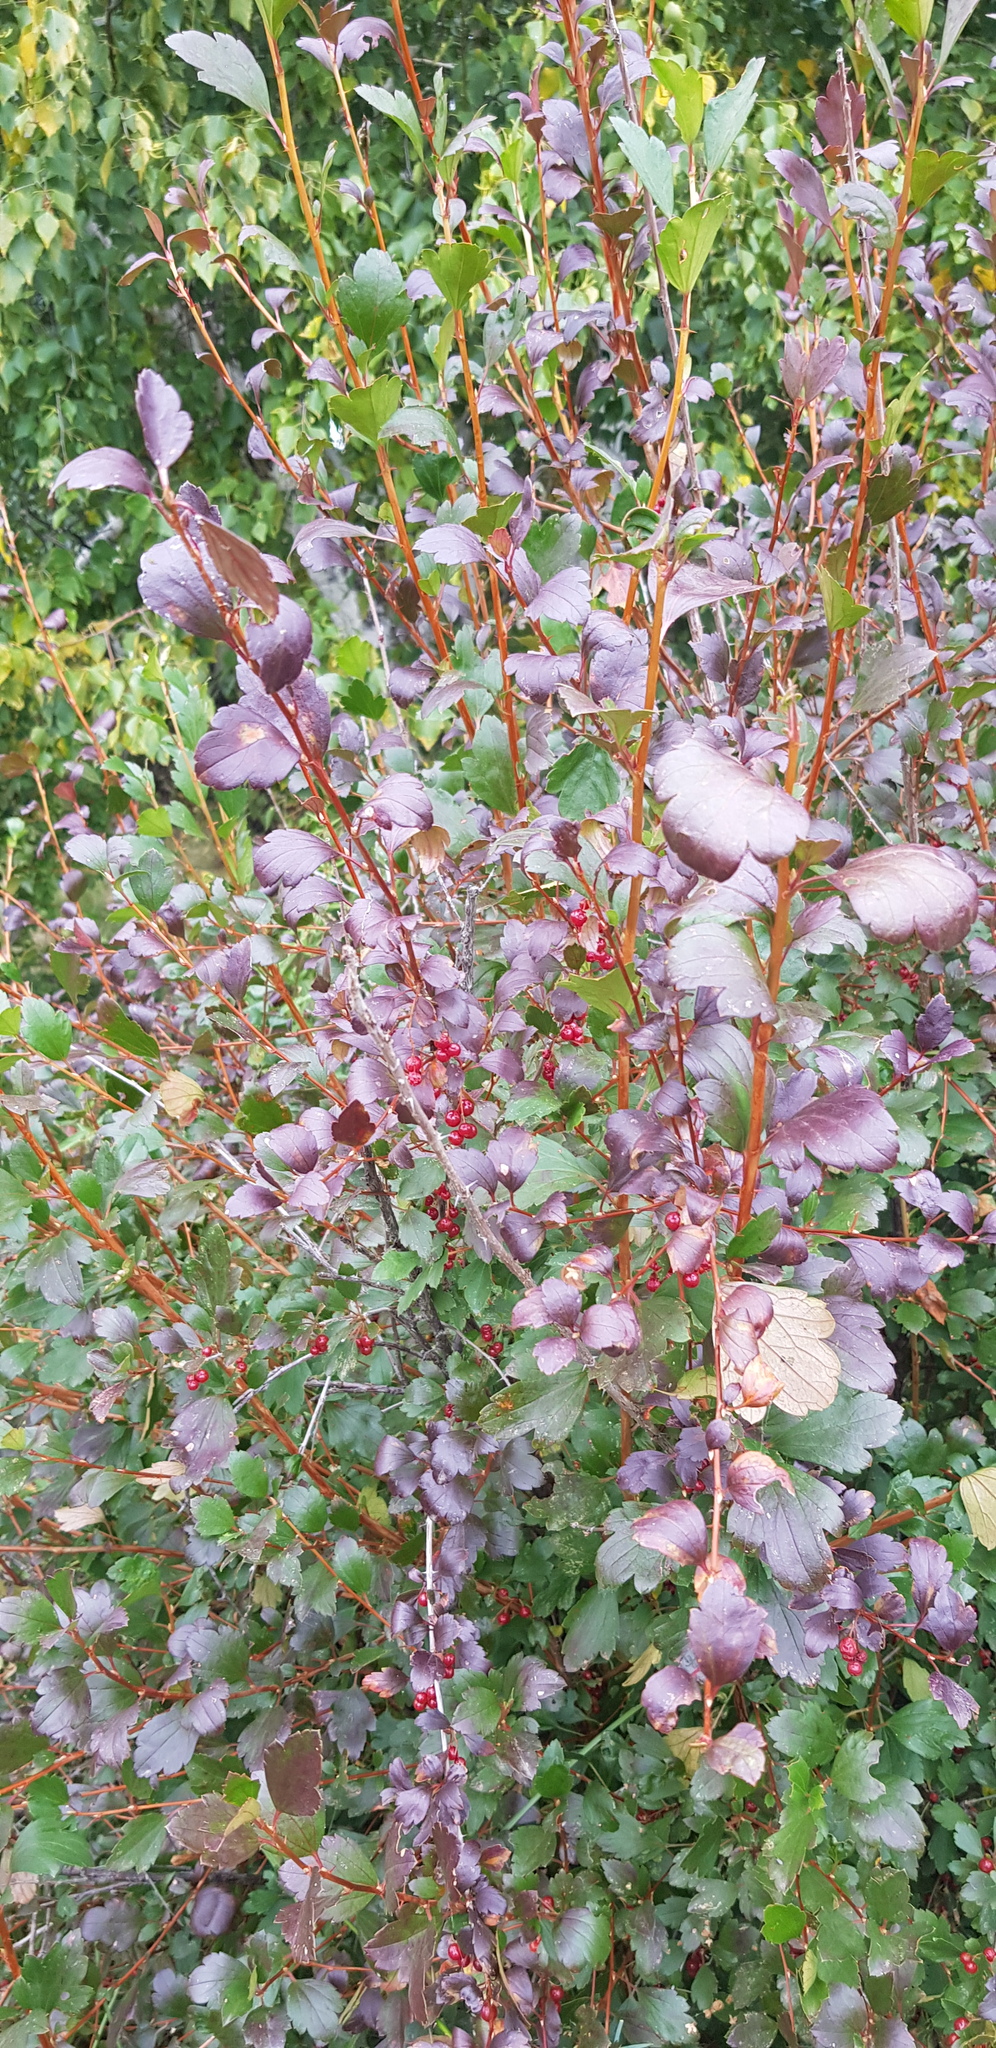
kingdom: Plantae
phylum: Tracheophyta
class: Magnoliopsida
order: Saxifragales
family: Grossulariaceae
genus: Ribes
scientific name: Ribes pulchellum
